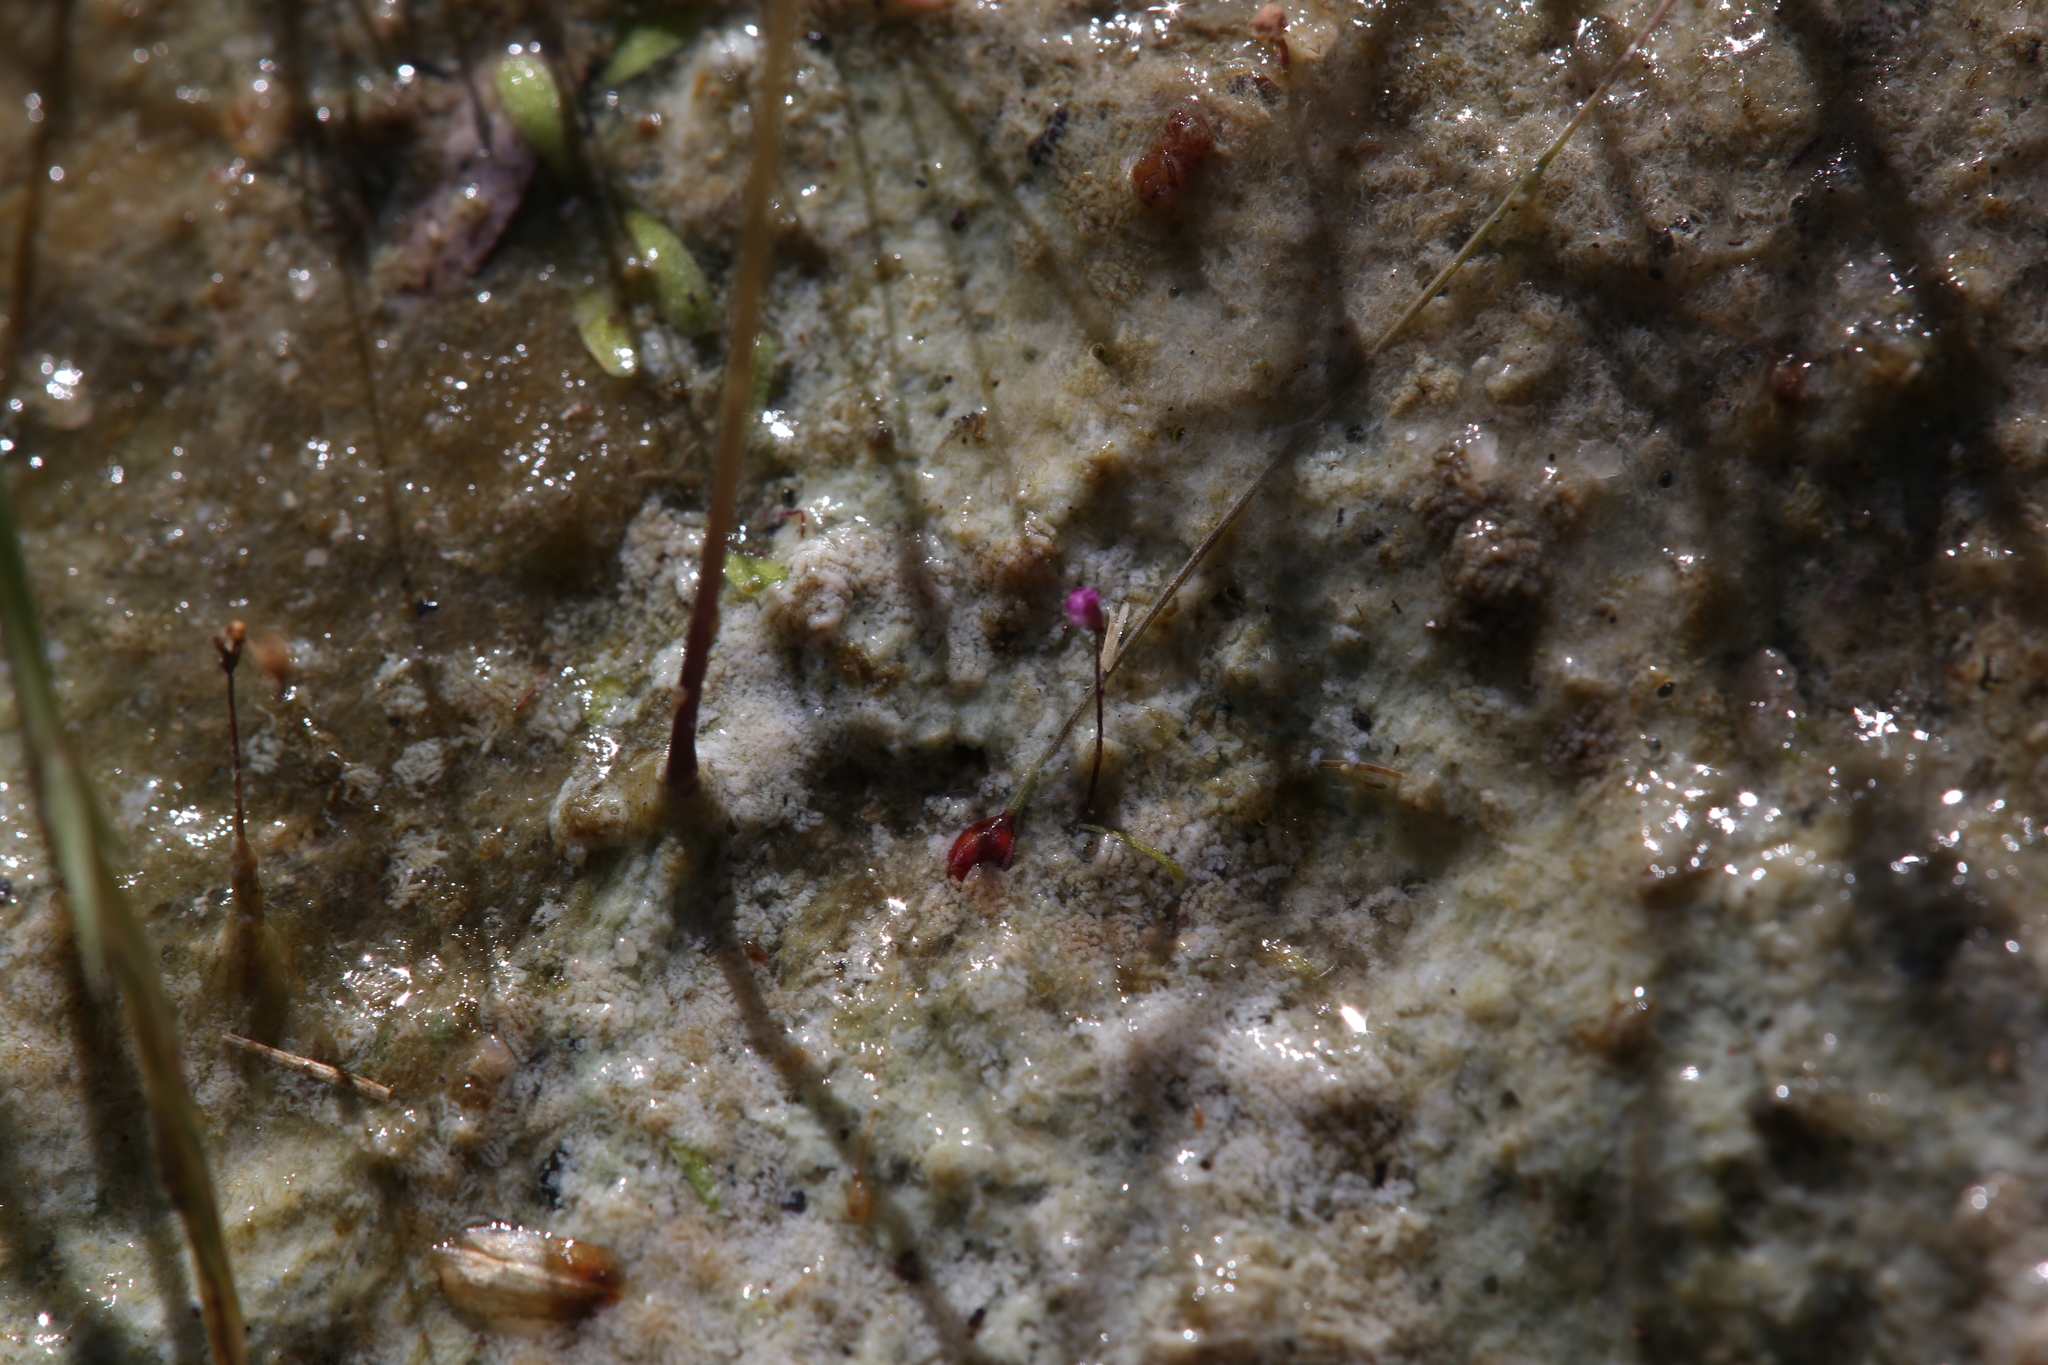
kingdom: Plantae
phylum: Tracheophyta
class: Magnoliopsida
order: Lamiales
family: Lentibulariaceae
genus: Utricularia
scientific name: Utricularia minutissima
